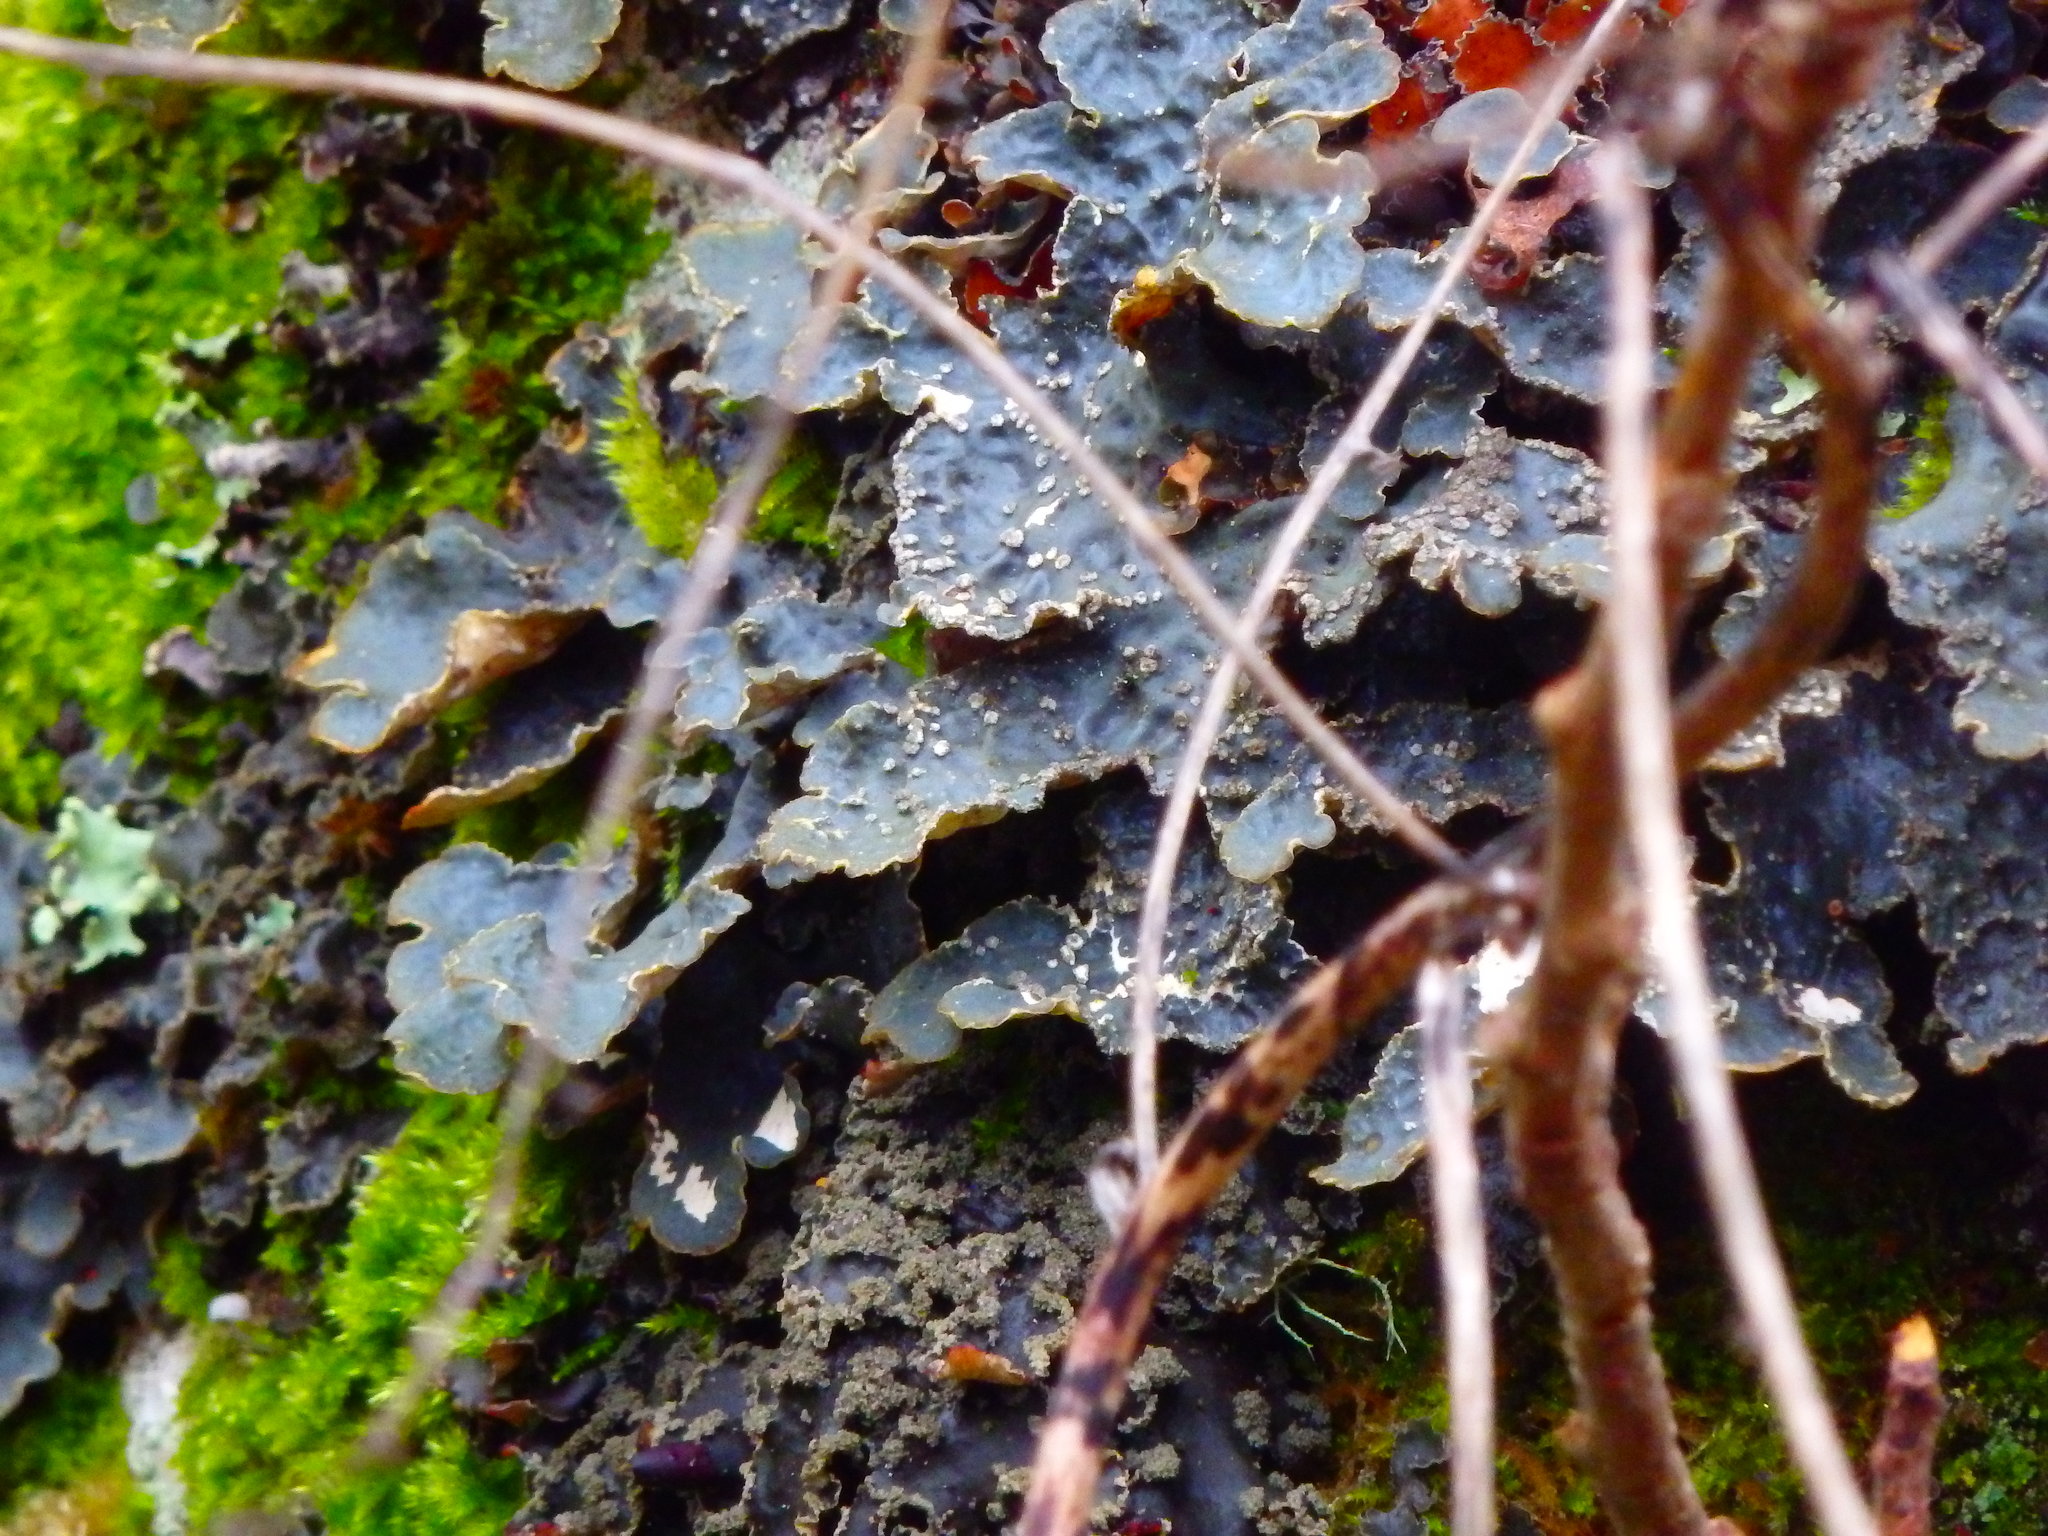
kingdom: Fungi
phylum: Ascomycota
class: Lecanoromycetes
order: Peltigerales
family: Lobariaceae
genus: Lobarina
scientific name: Lobarina scrobiculata
